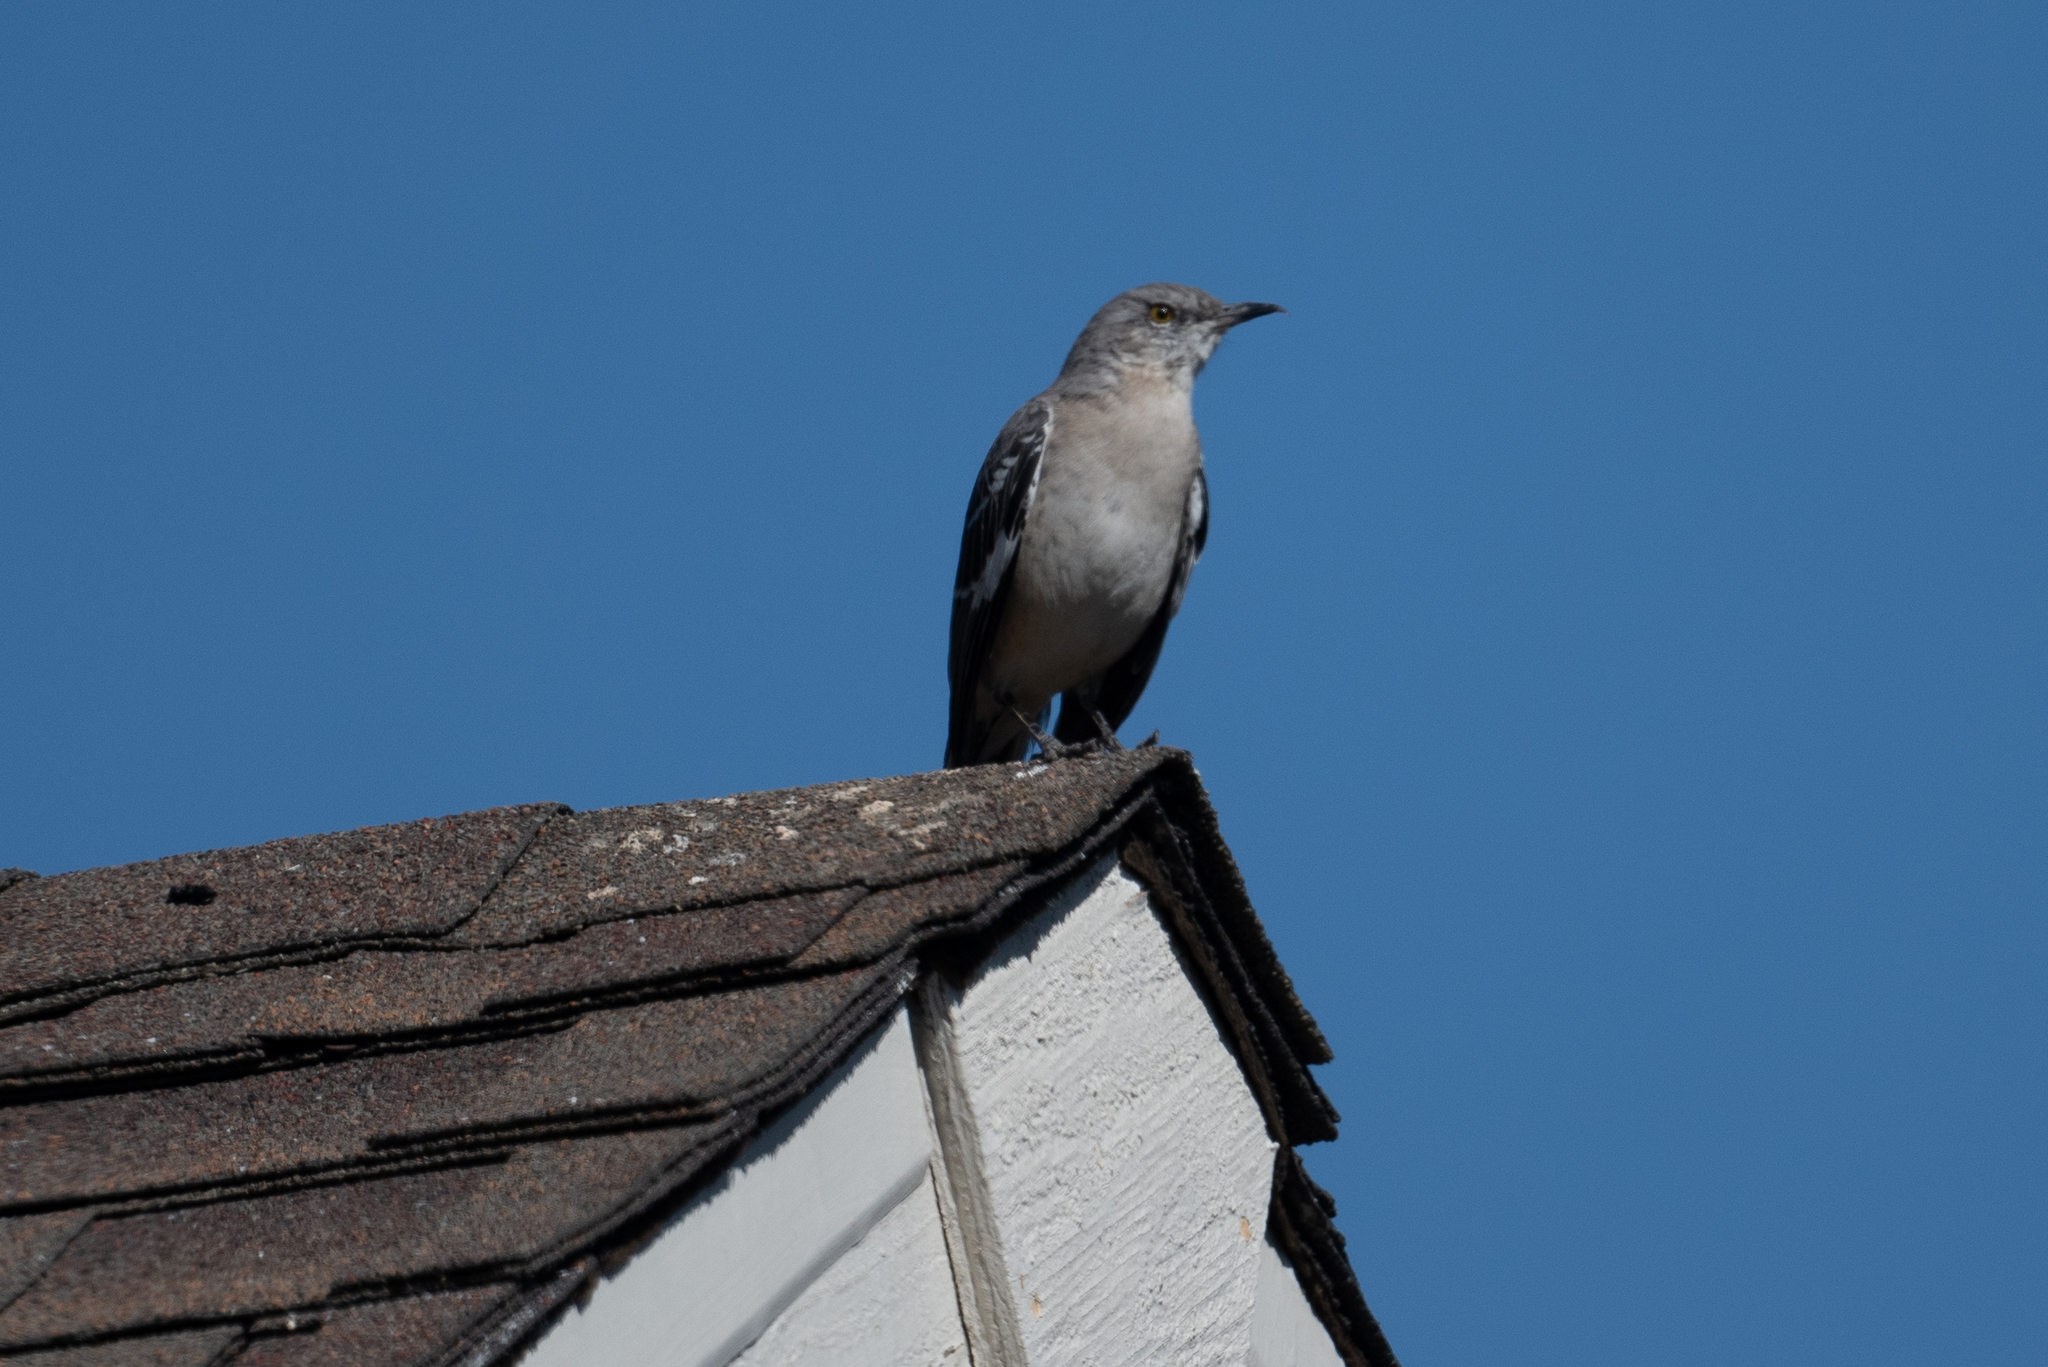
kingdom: Animalia
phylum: Chordata
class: Aves
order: Passeriformes
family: Mimidae
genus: Mimus
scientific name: Mimus polyglottos
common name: Northern mockingbird
